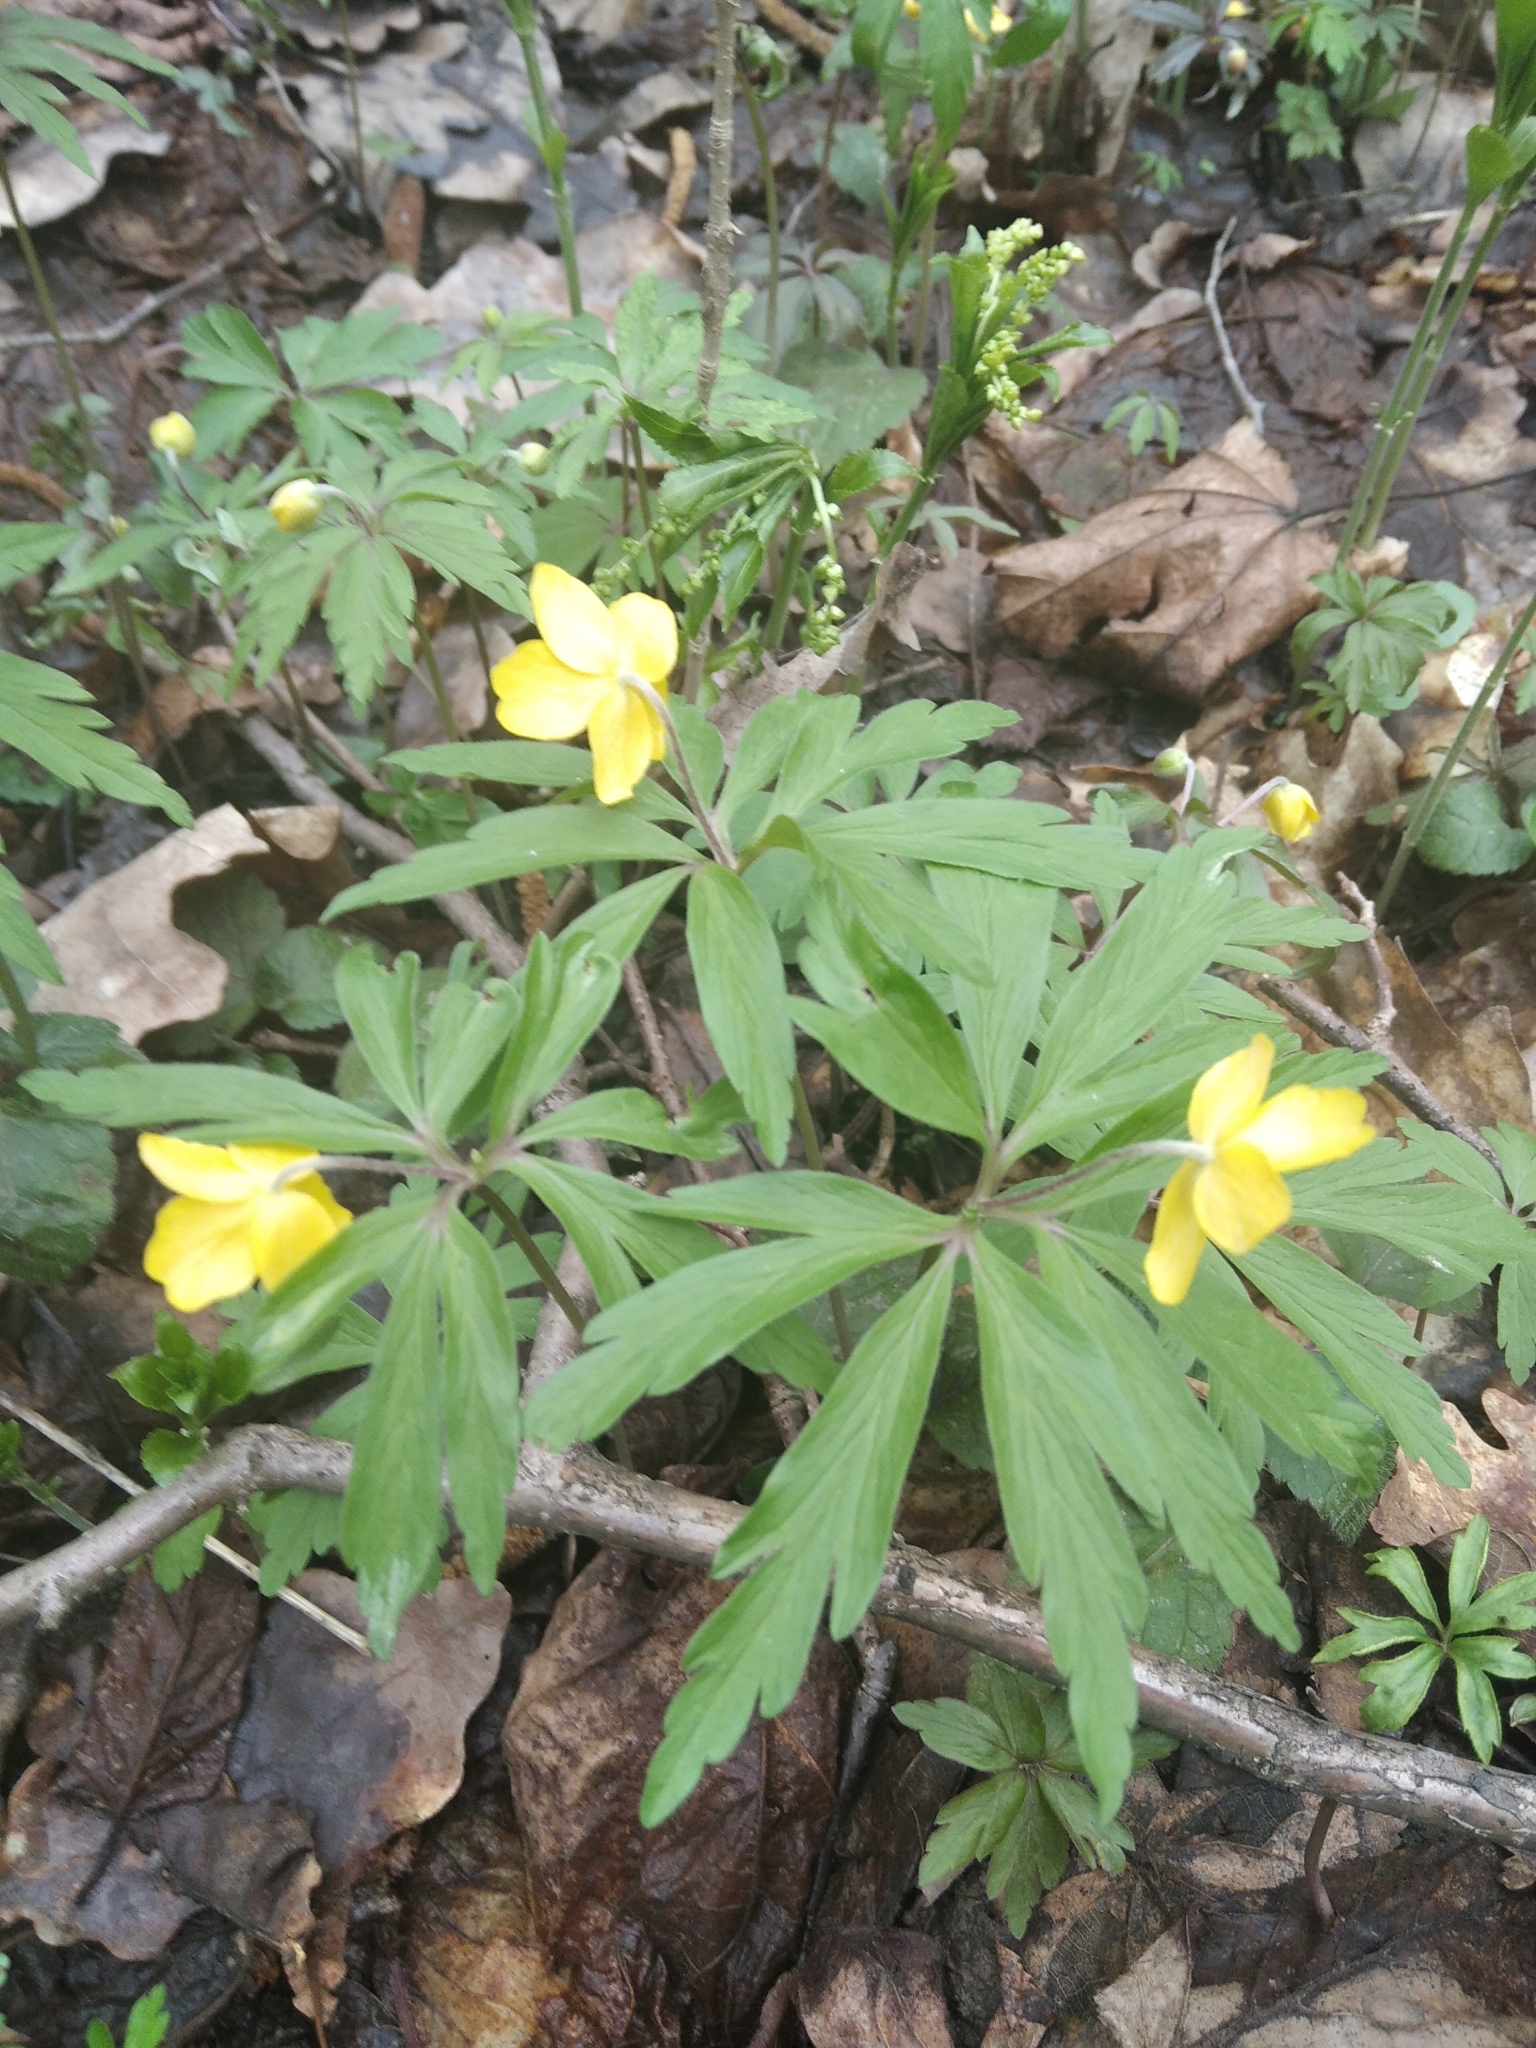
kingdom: Plantae
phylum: Tracheophyta
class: Magnoliopsida
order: Ranunculales
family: Ranunculaceae
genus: Anemone
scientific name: Anemone ranunculoides
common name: Yellow anemone
